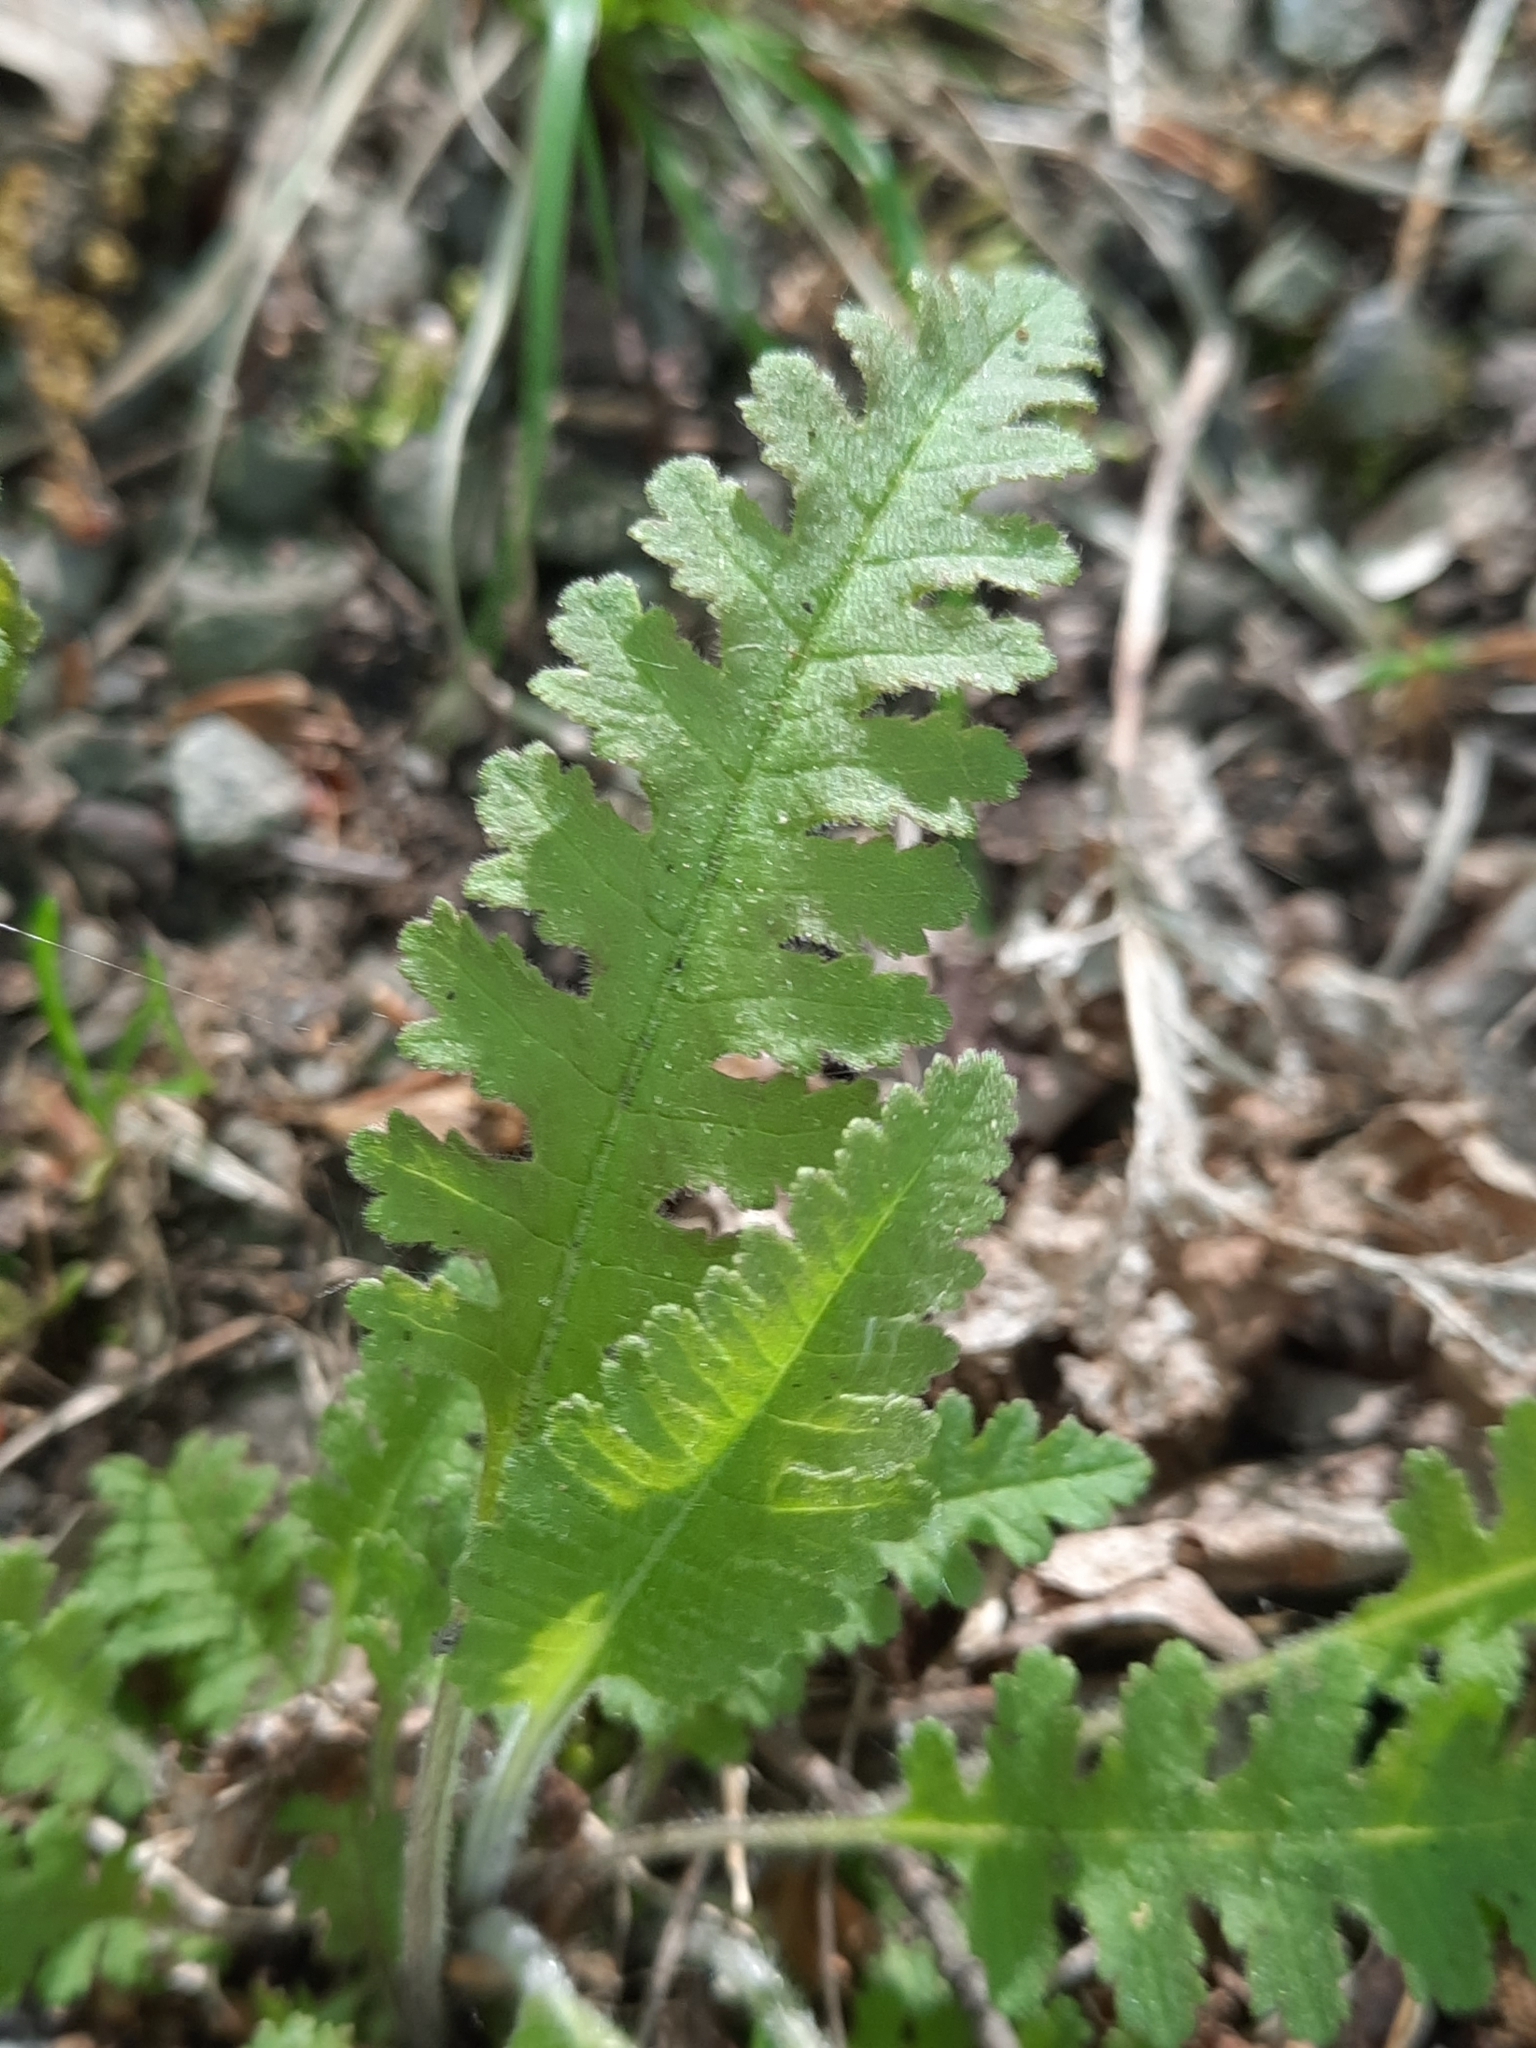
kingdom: Plantae
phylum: Tracheophyta
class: Magnoliopsida
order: Lamiales
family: Orobanchaceae
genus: Pedicularis
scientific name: Pedicularis canadensis
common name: Early lousewort
